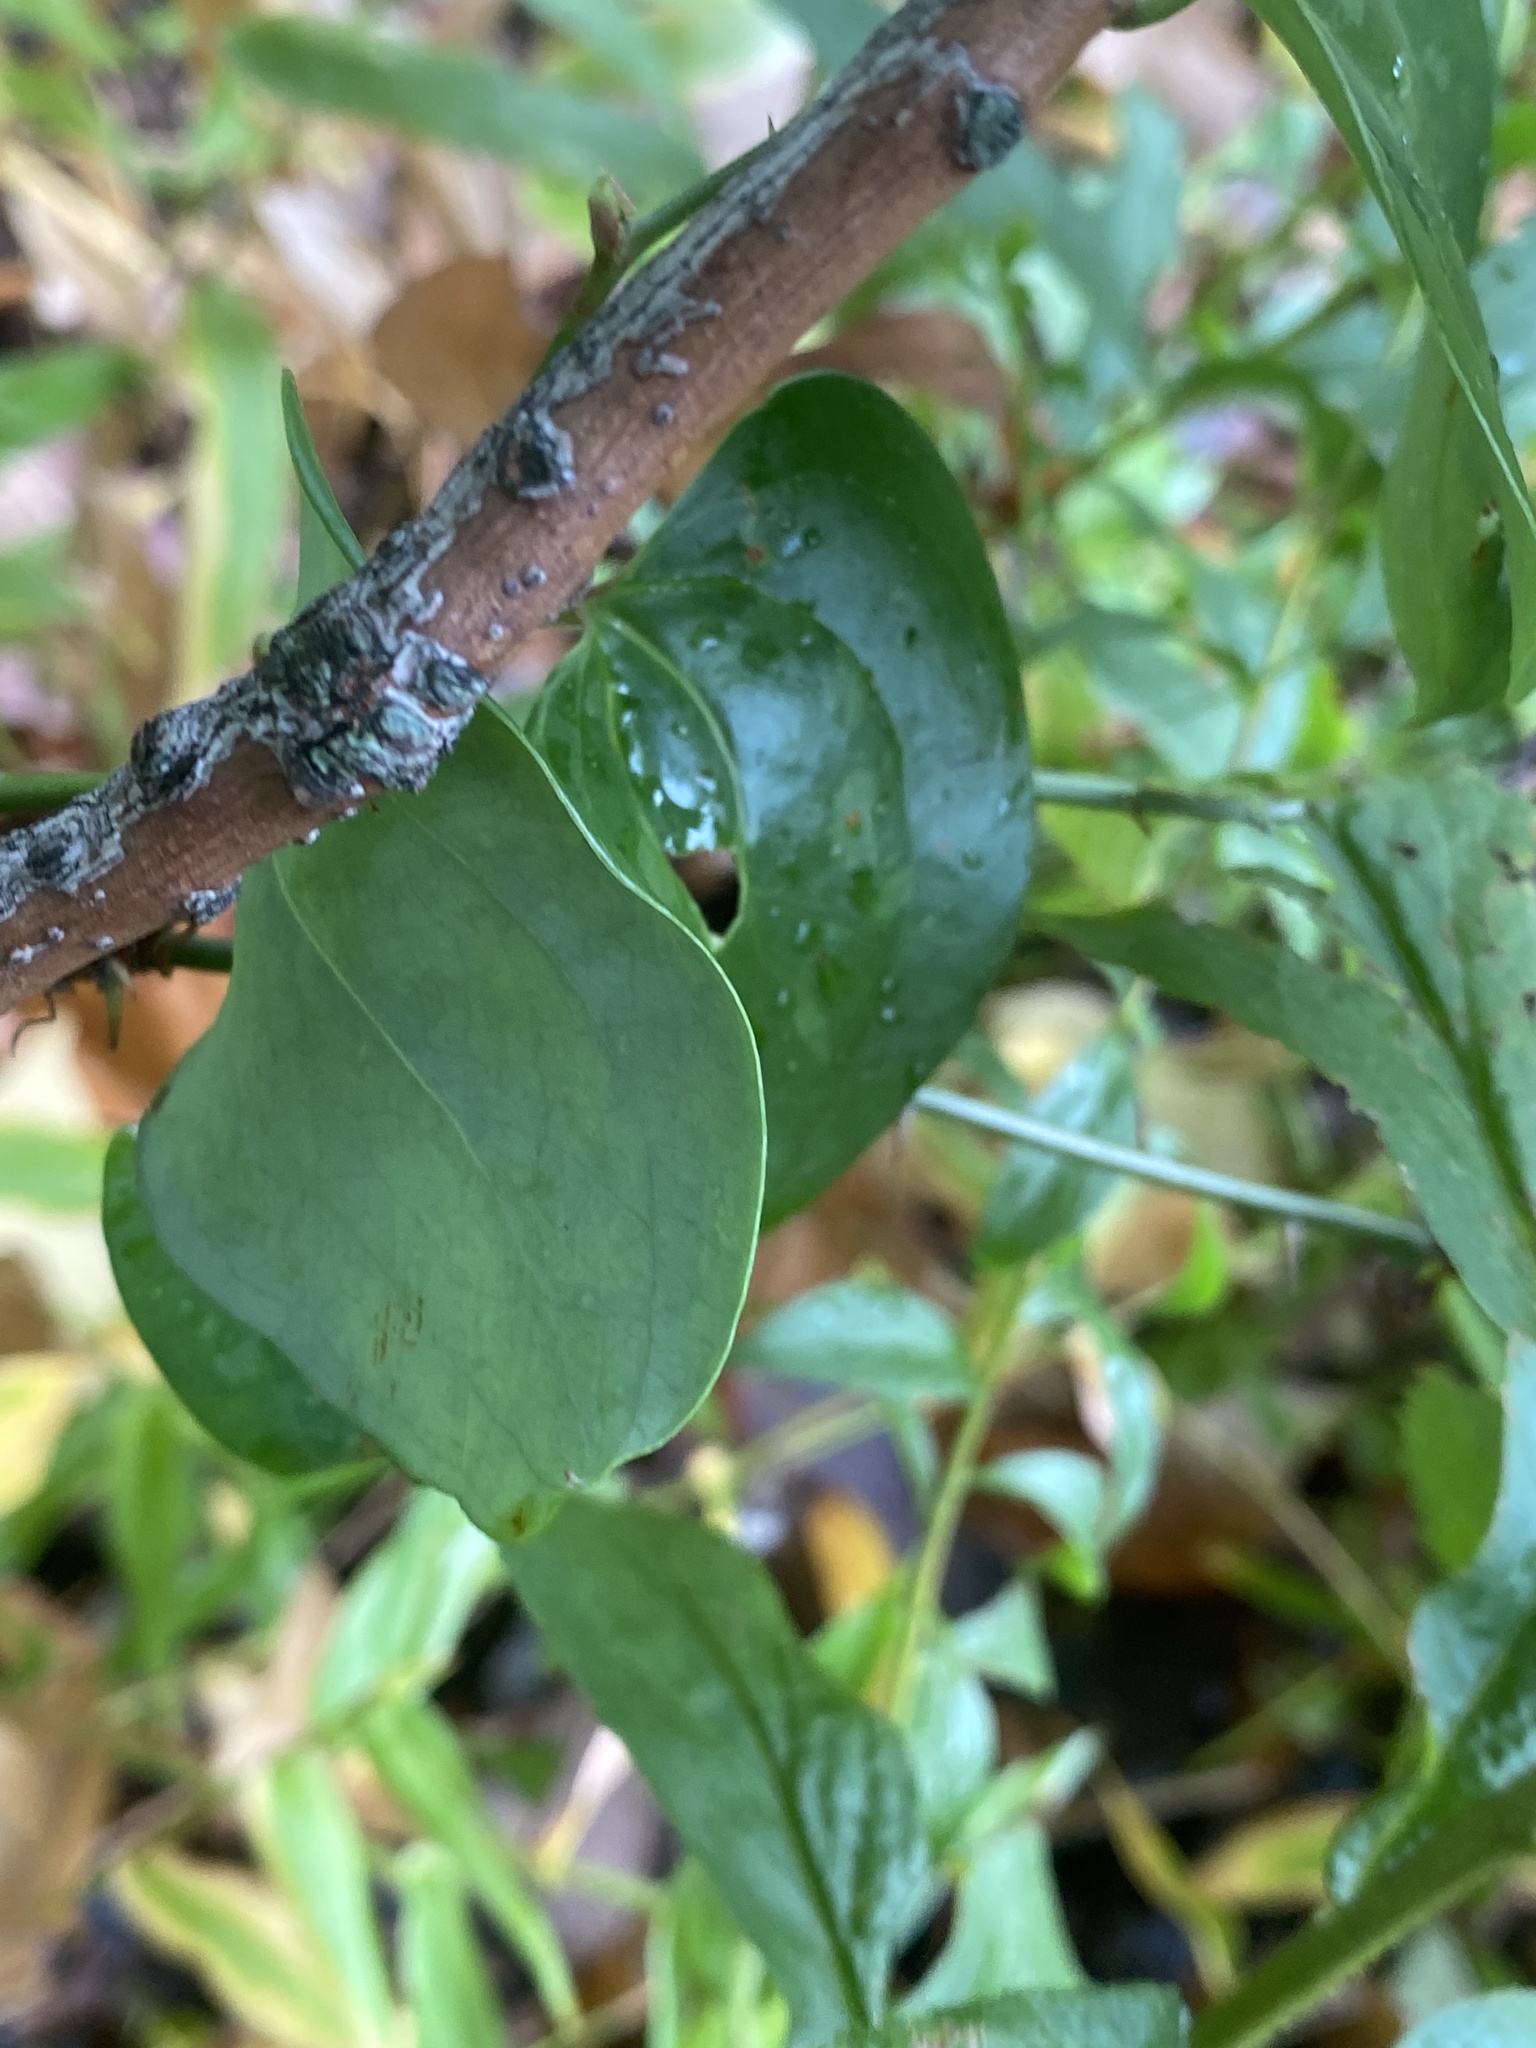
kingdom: Plantae
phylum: Tracheophyta
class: Liliopsida
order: Liliales
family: Smilacaceae
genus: Smilax
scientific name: Smilax glauca
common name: Cat greenbrier
